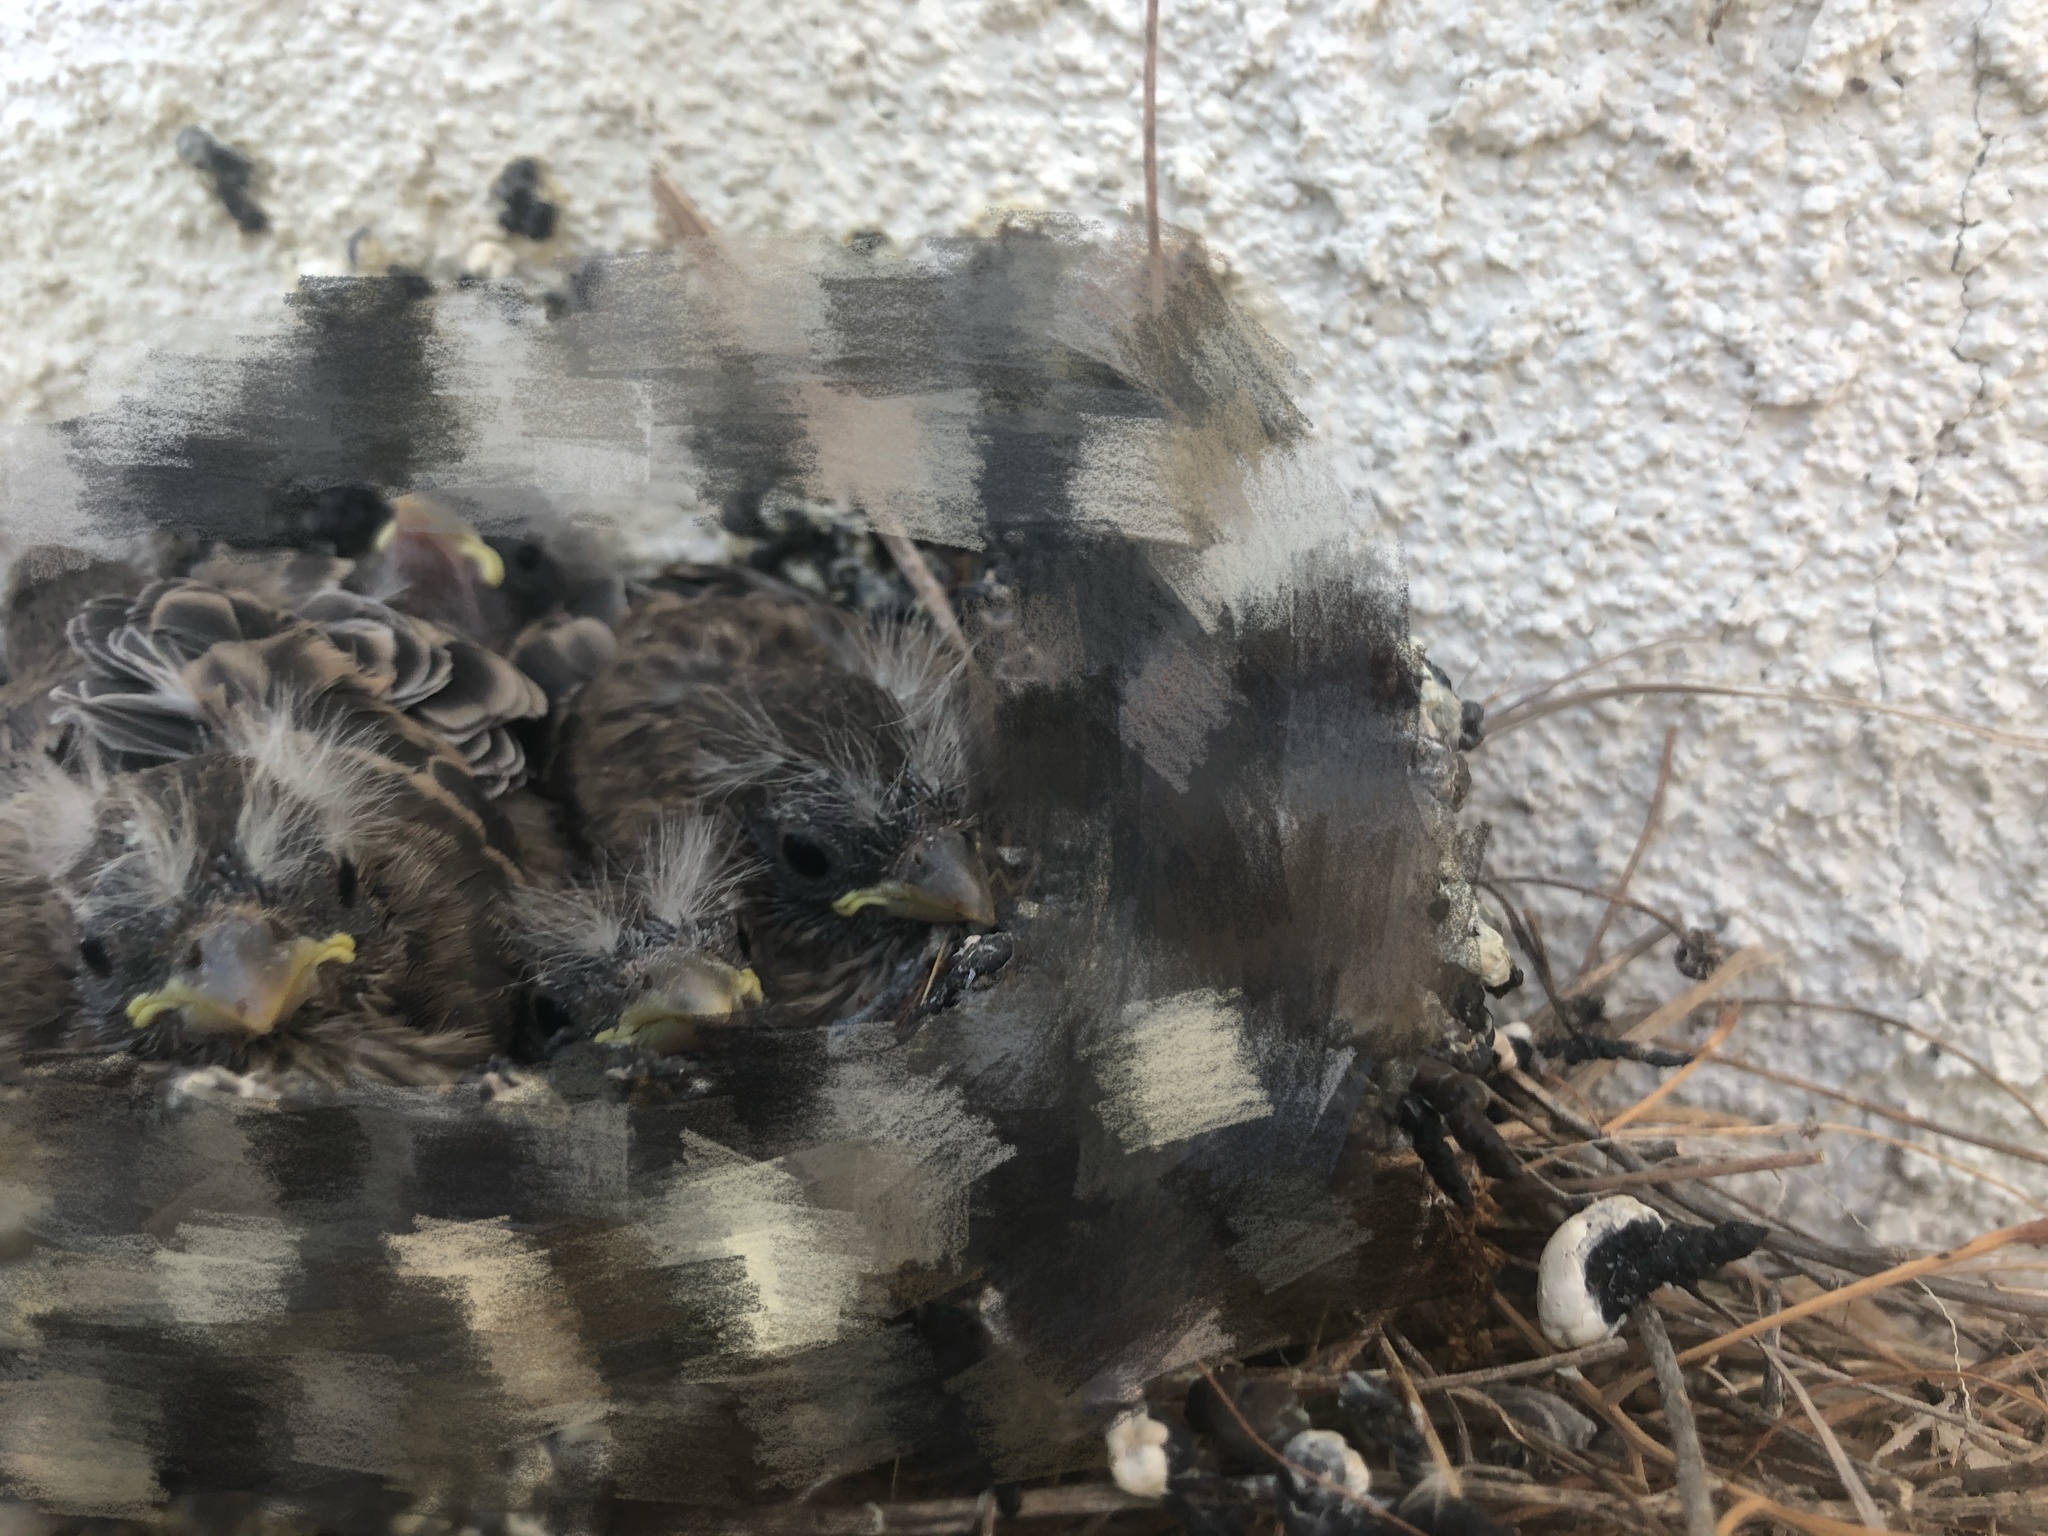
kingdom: Animalia
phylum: Chordata
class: Aves
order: Passeriformes
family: Fringillidae
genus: Haemorhous
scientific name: Haemorhous mexicanus
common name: House finch
